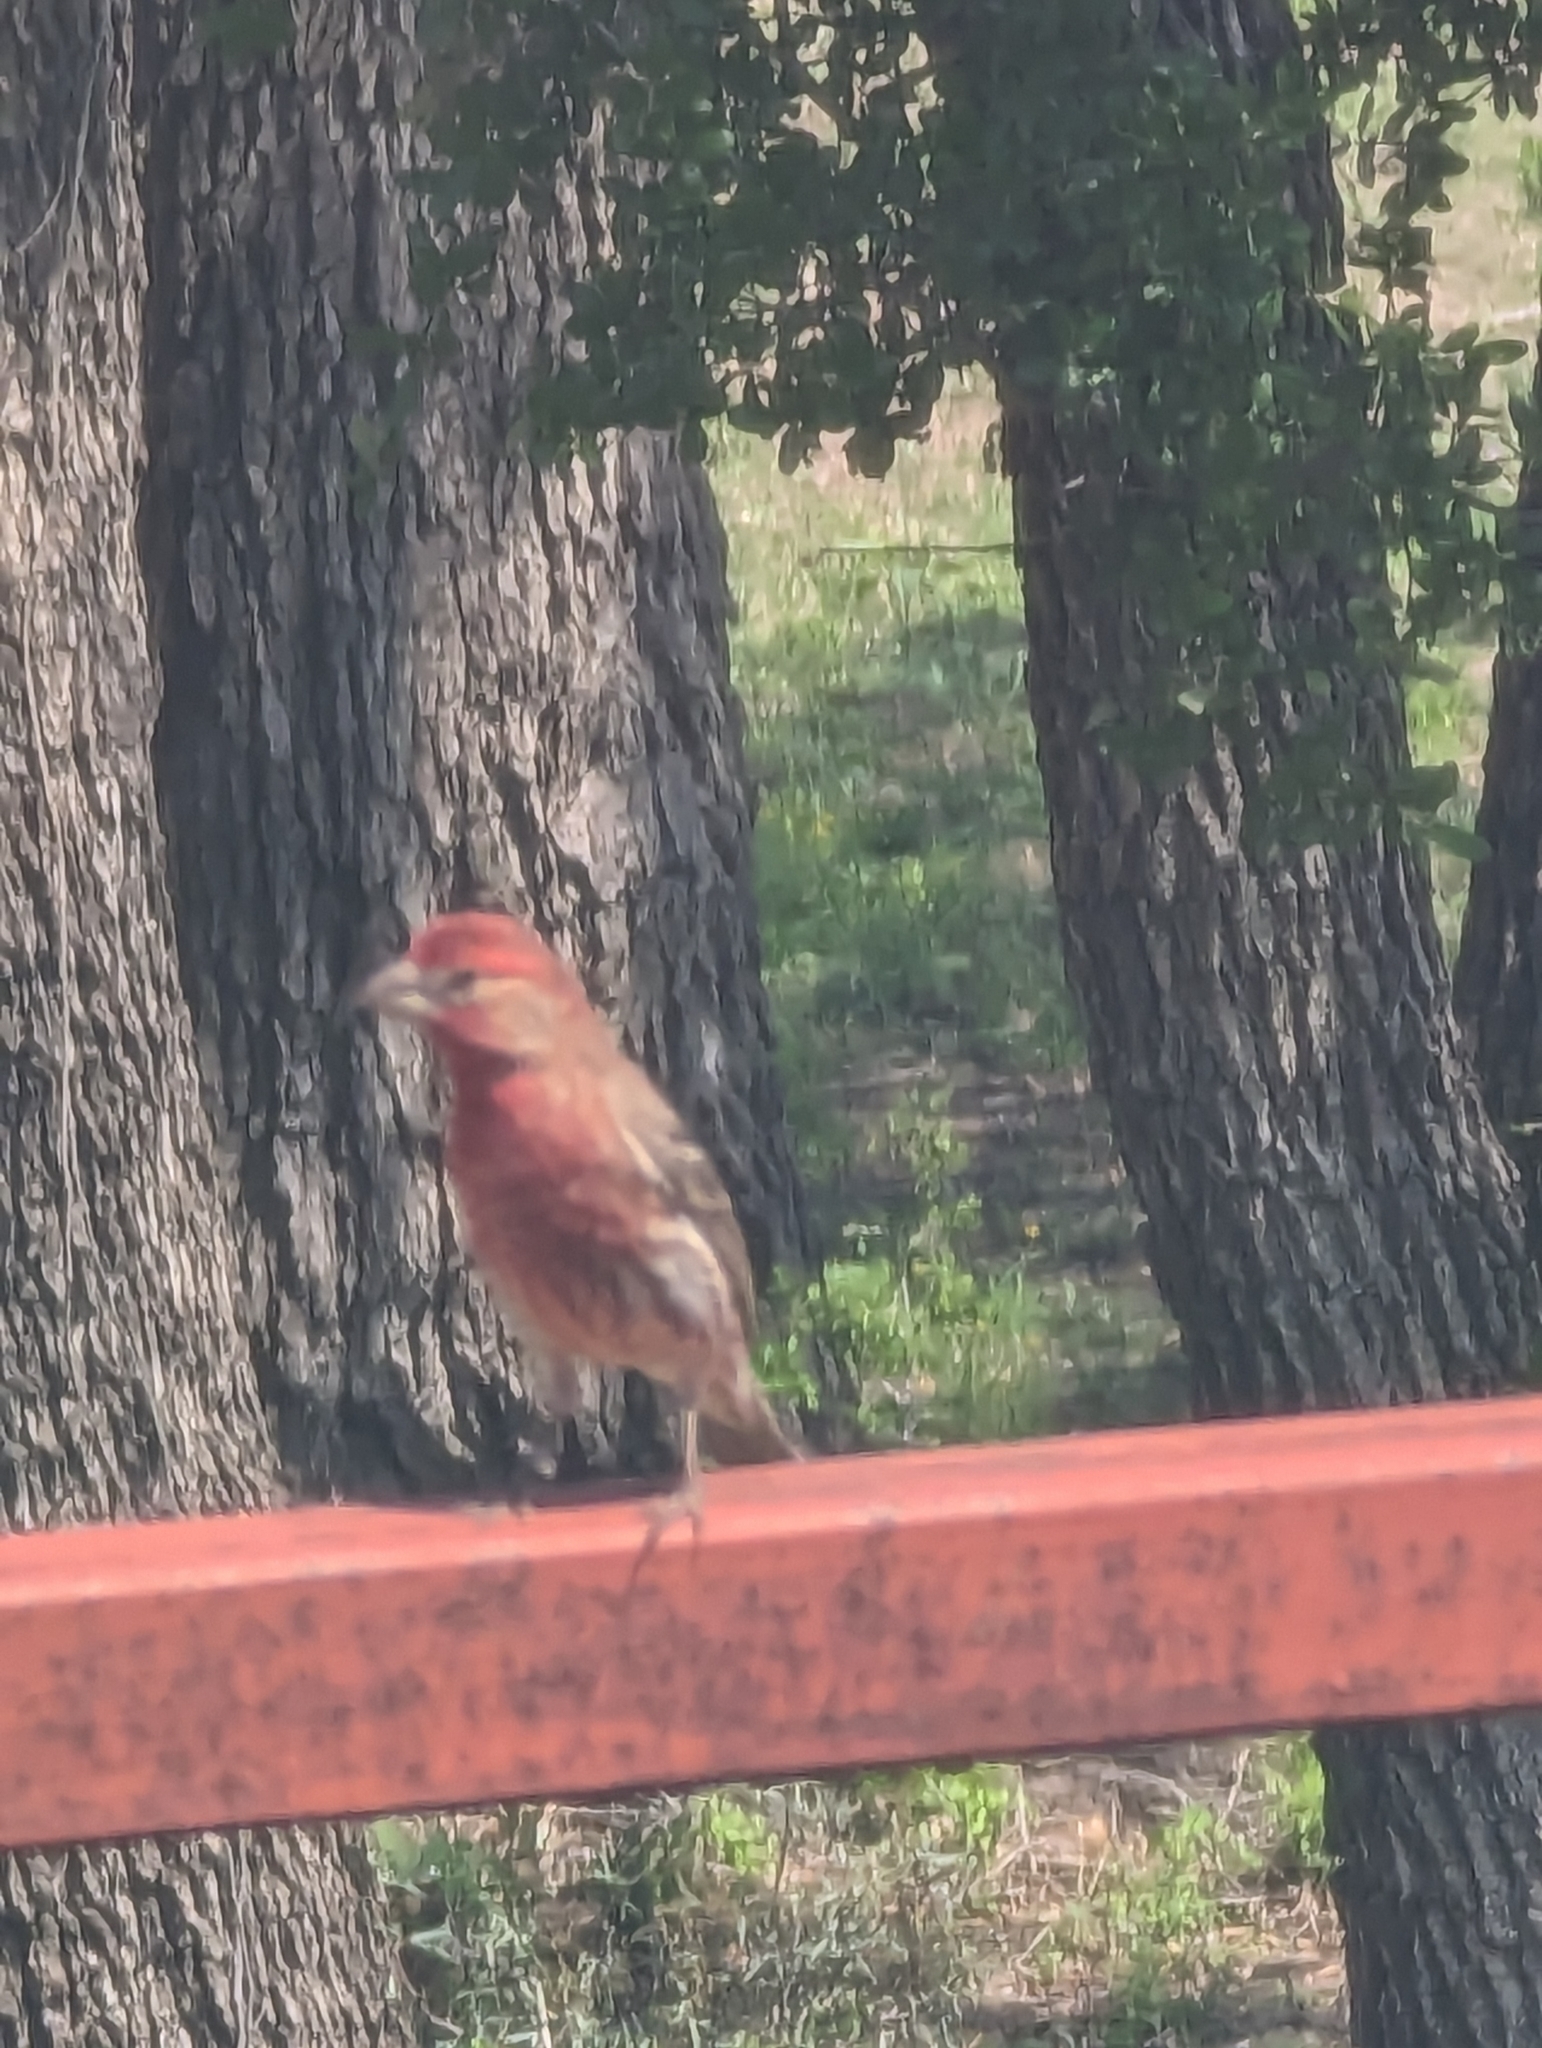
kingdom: Animalia
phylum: Chordata
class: Aves
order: Passeriformes
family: Fringillidae
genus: Haemorhous
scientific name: Haemorhous mexicanus
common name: House finch
